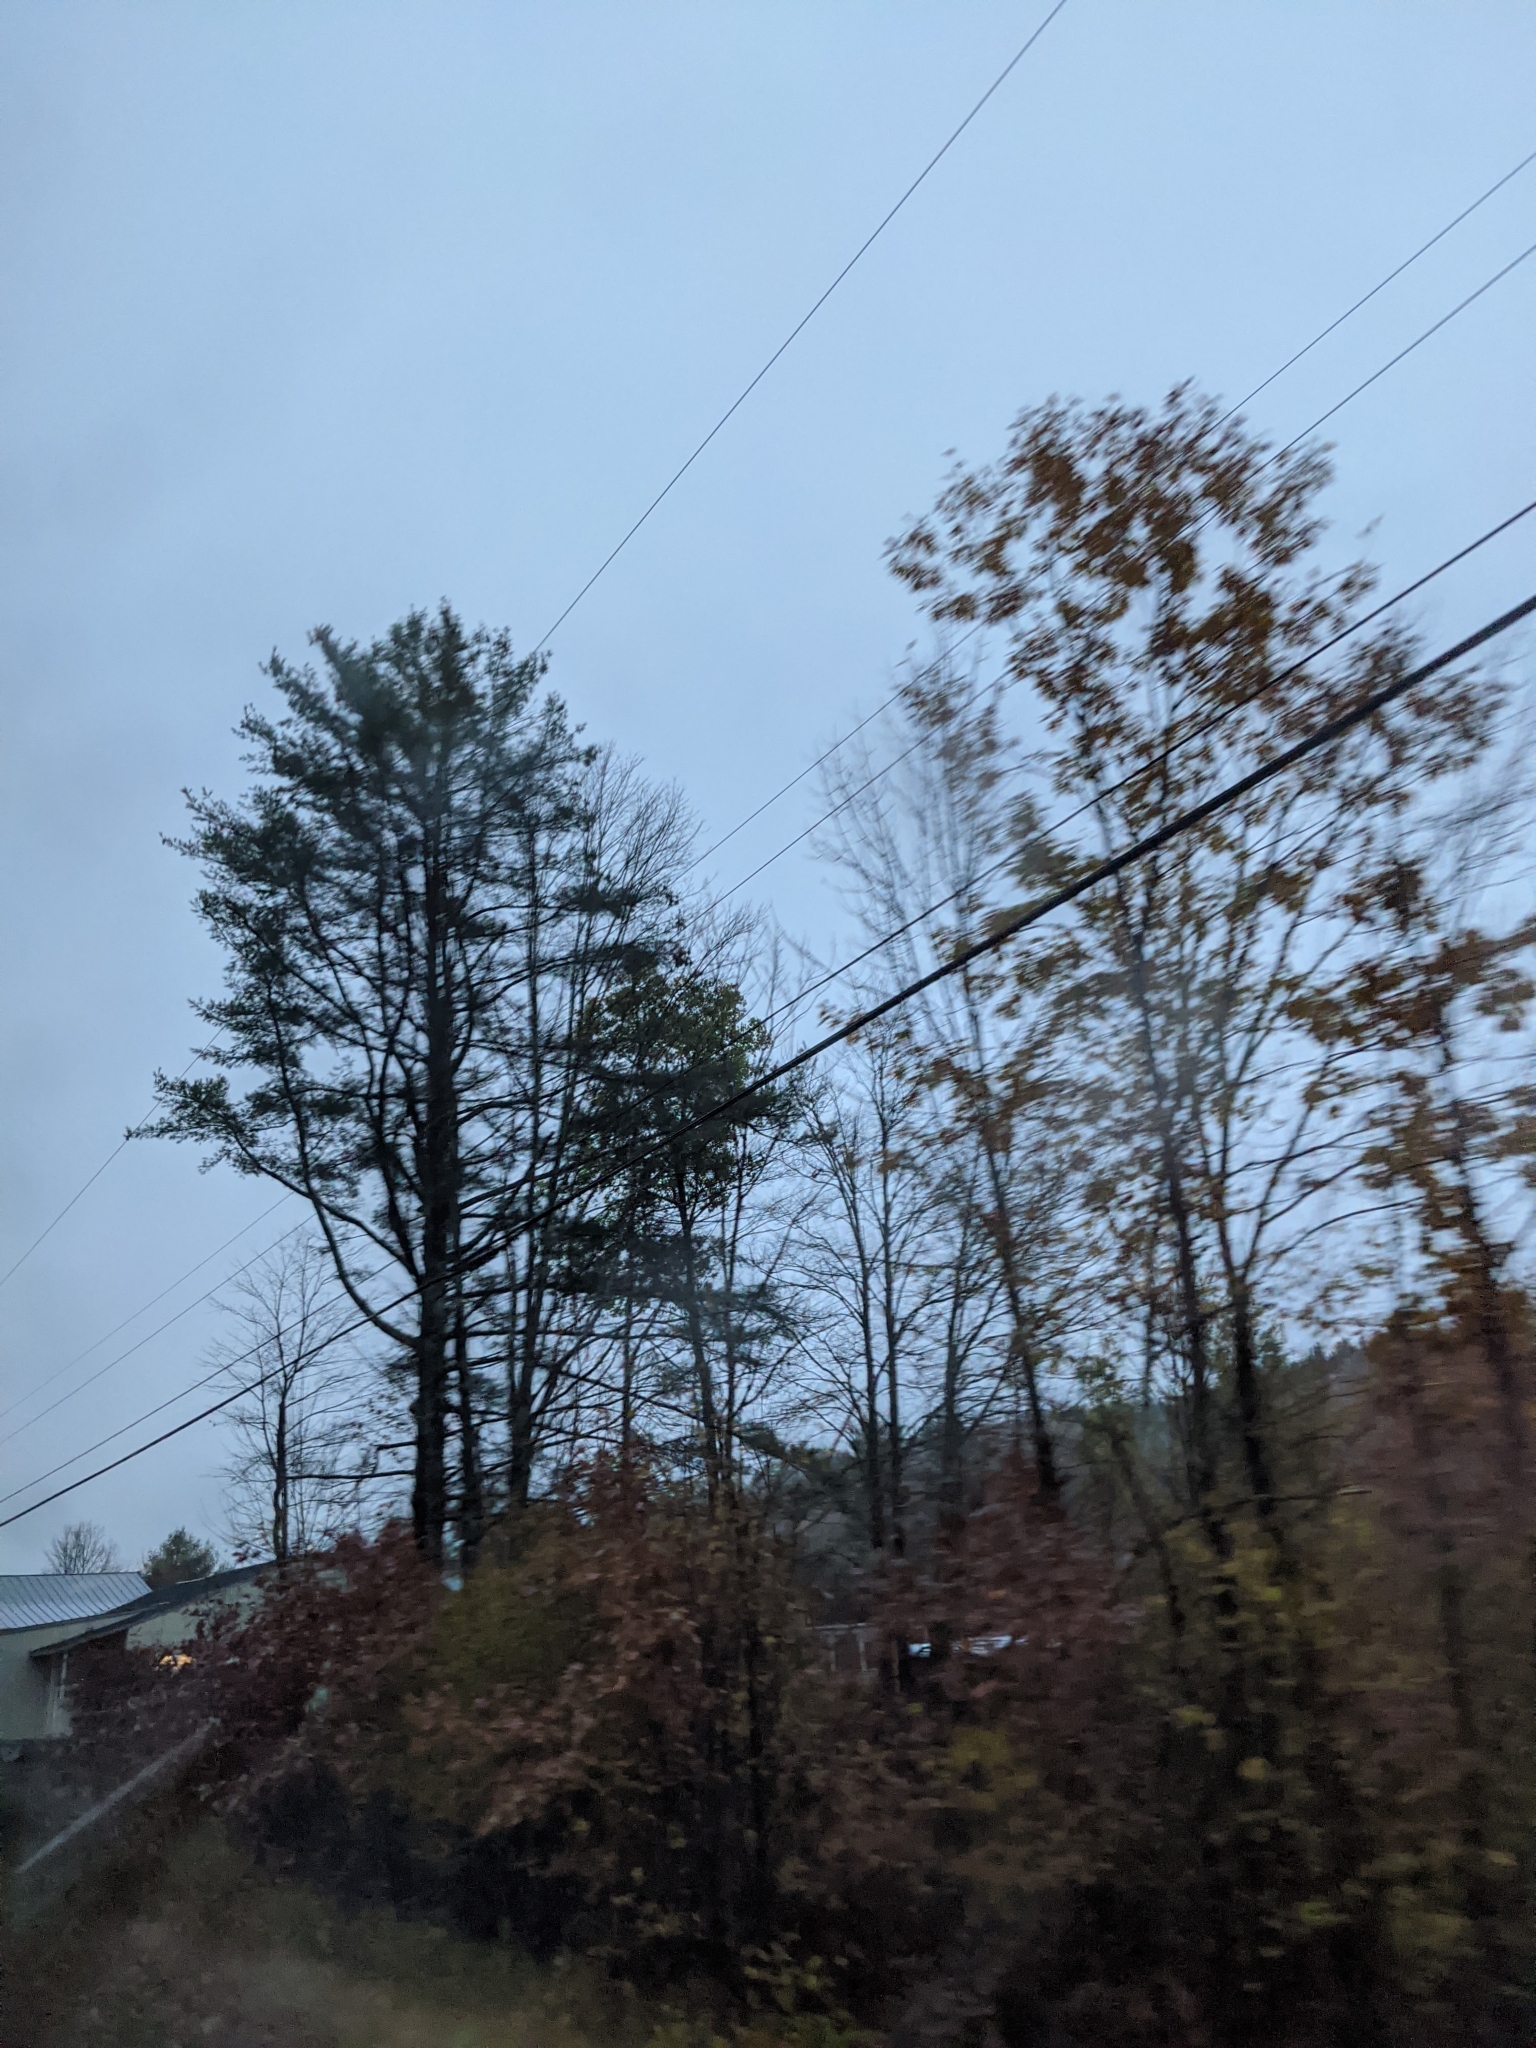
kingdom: Plantae
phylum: Tracheophyta
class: Pinopsida
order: Pinales
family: Pinaceae
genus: Pinus
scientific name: Pinus strobus
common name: Weymouth pine
